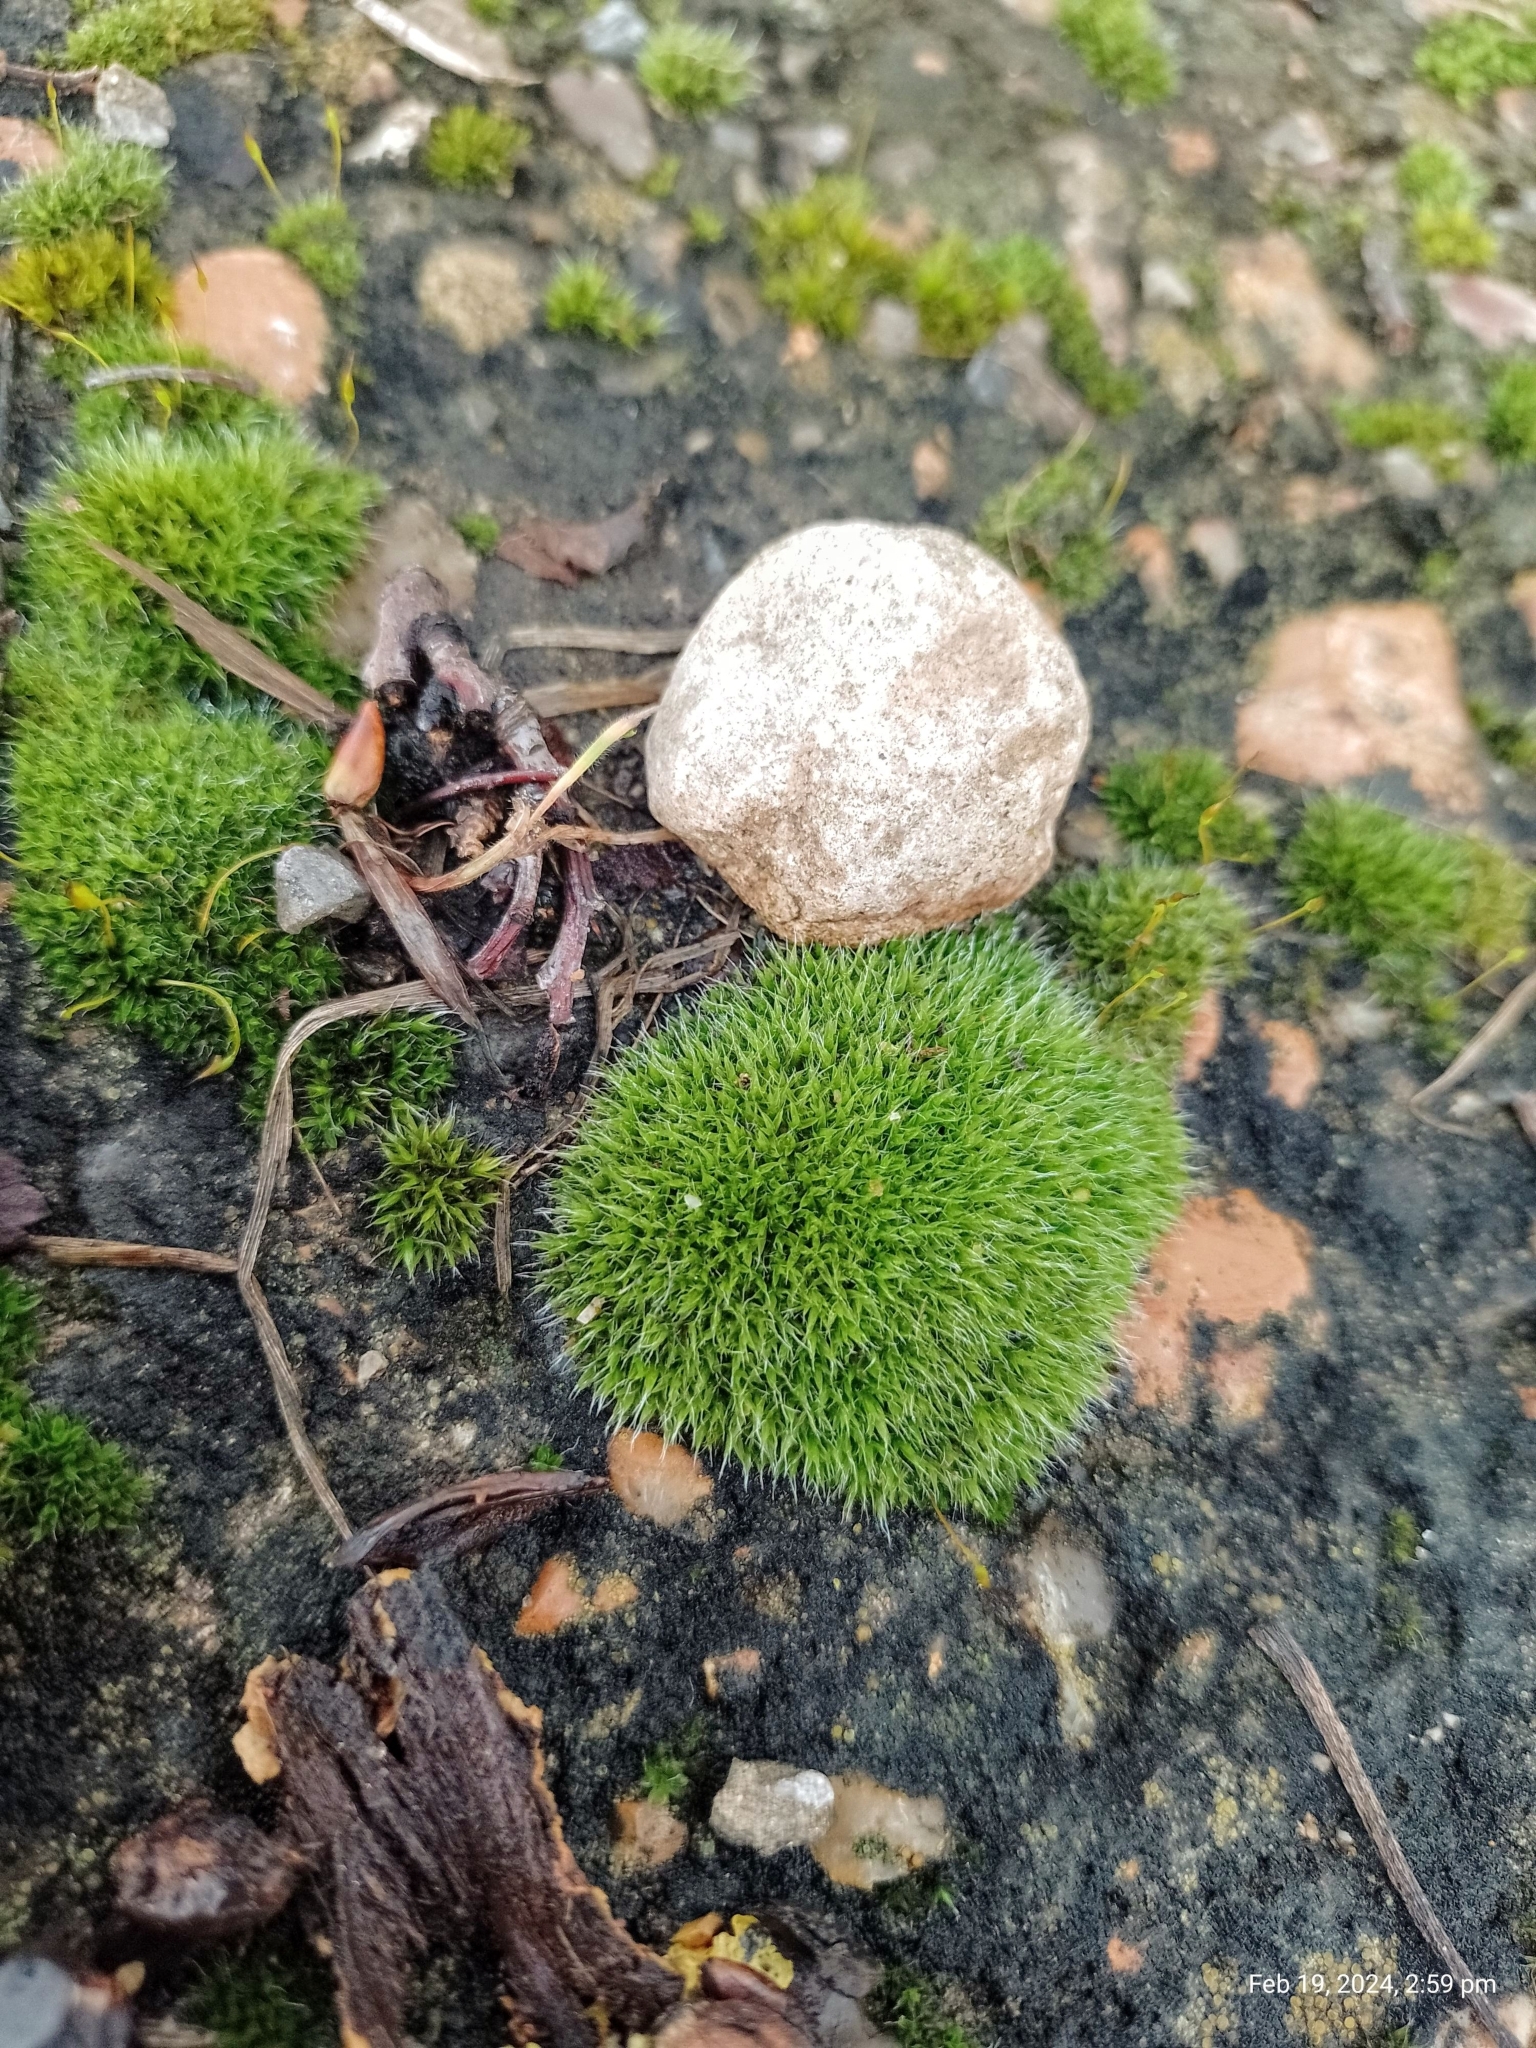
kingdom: Plantae
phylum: Bryophyta
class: Bryopsida
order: Grimmiales
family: Grimmiaceae
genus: Grimmia
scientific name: Grimmia pulvinata
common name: Grey-cushioned grimmia
